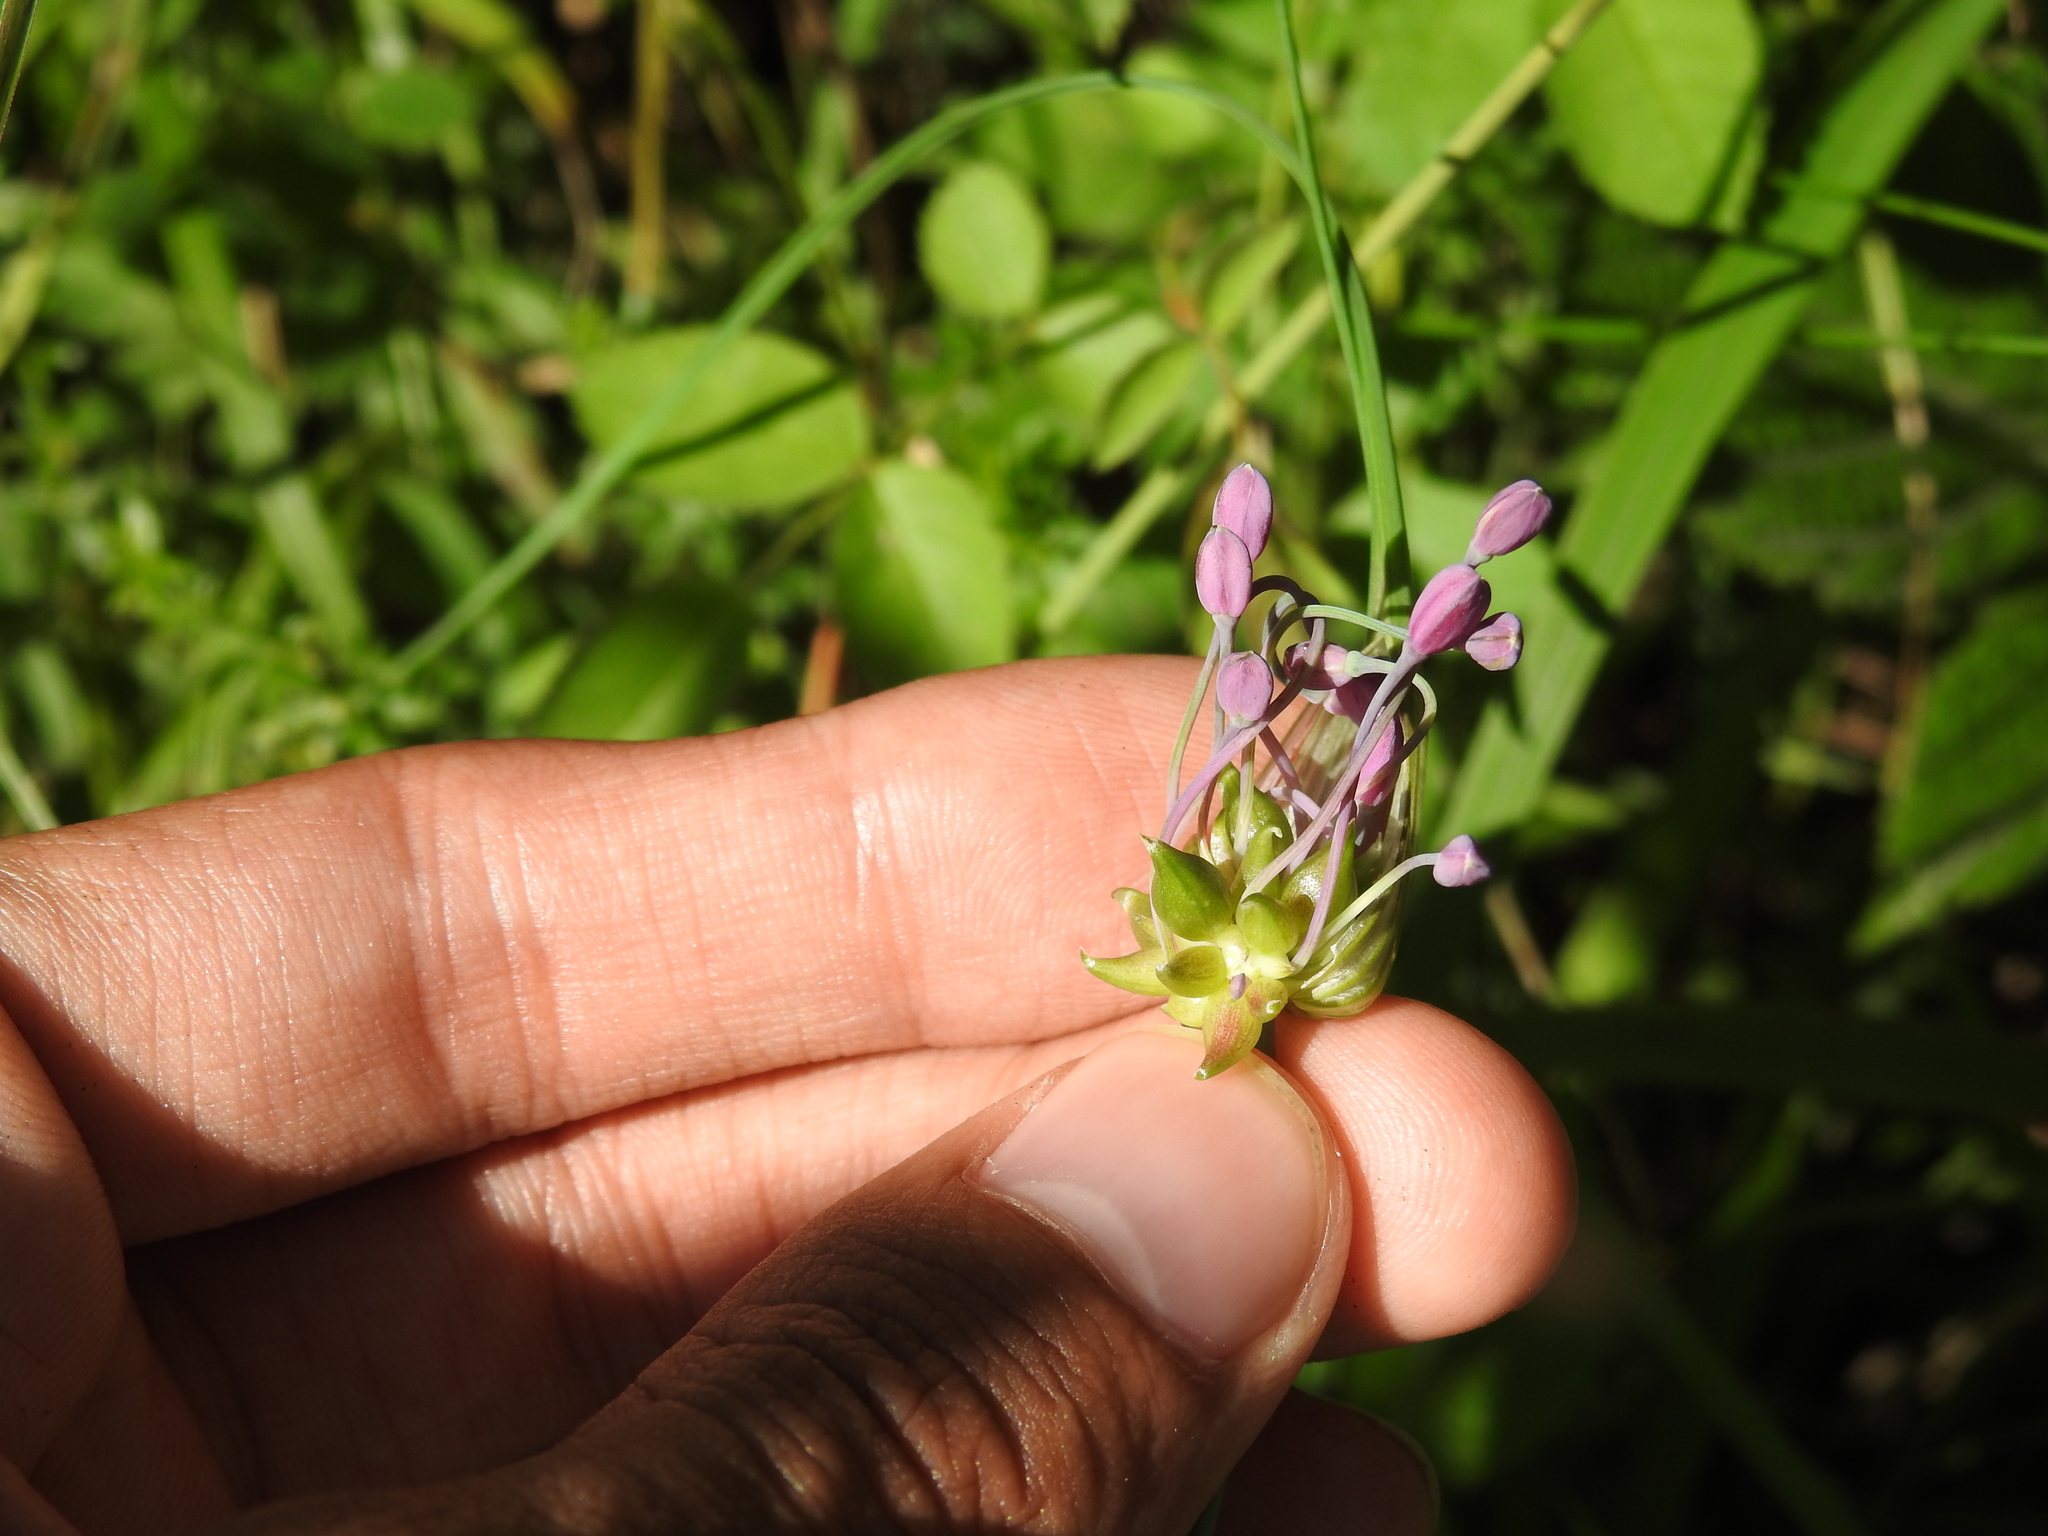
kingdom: Plantae
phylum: Tracheophyta
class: Liliopsida
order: Asparagales
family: Amaryllidaceae
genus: Allium
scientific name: Allium carinatum
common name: Keeled garlic
